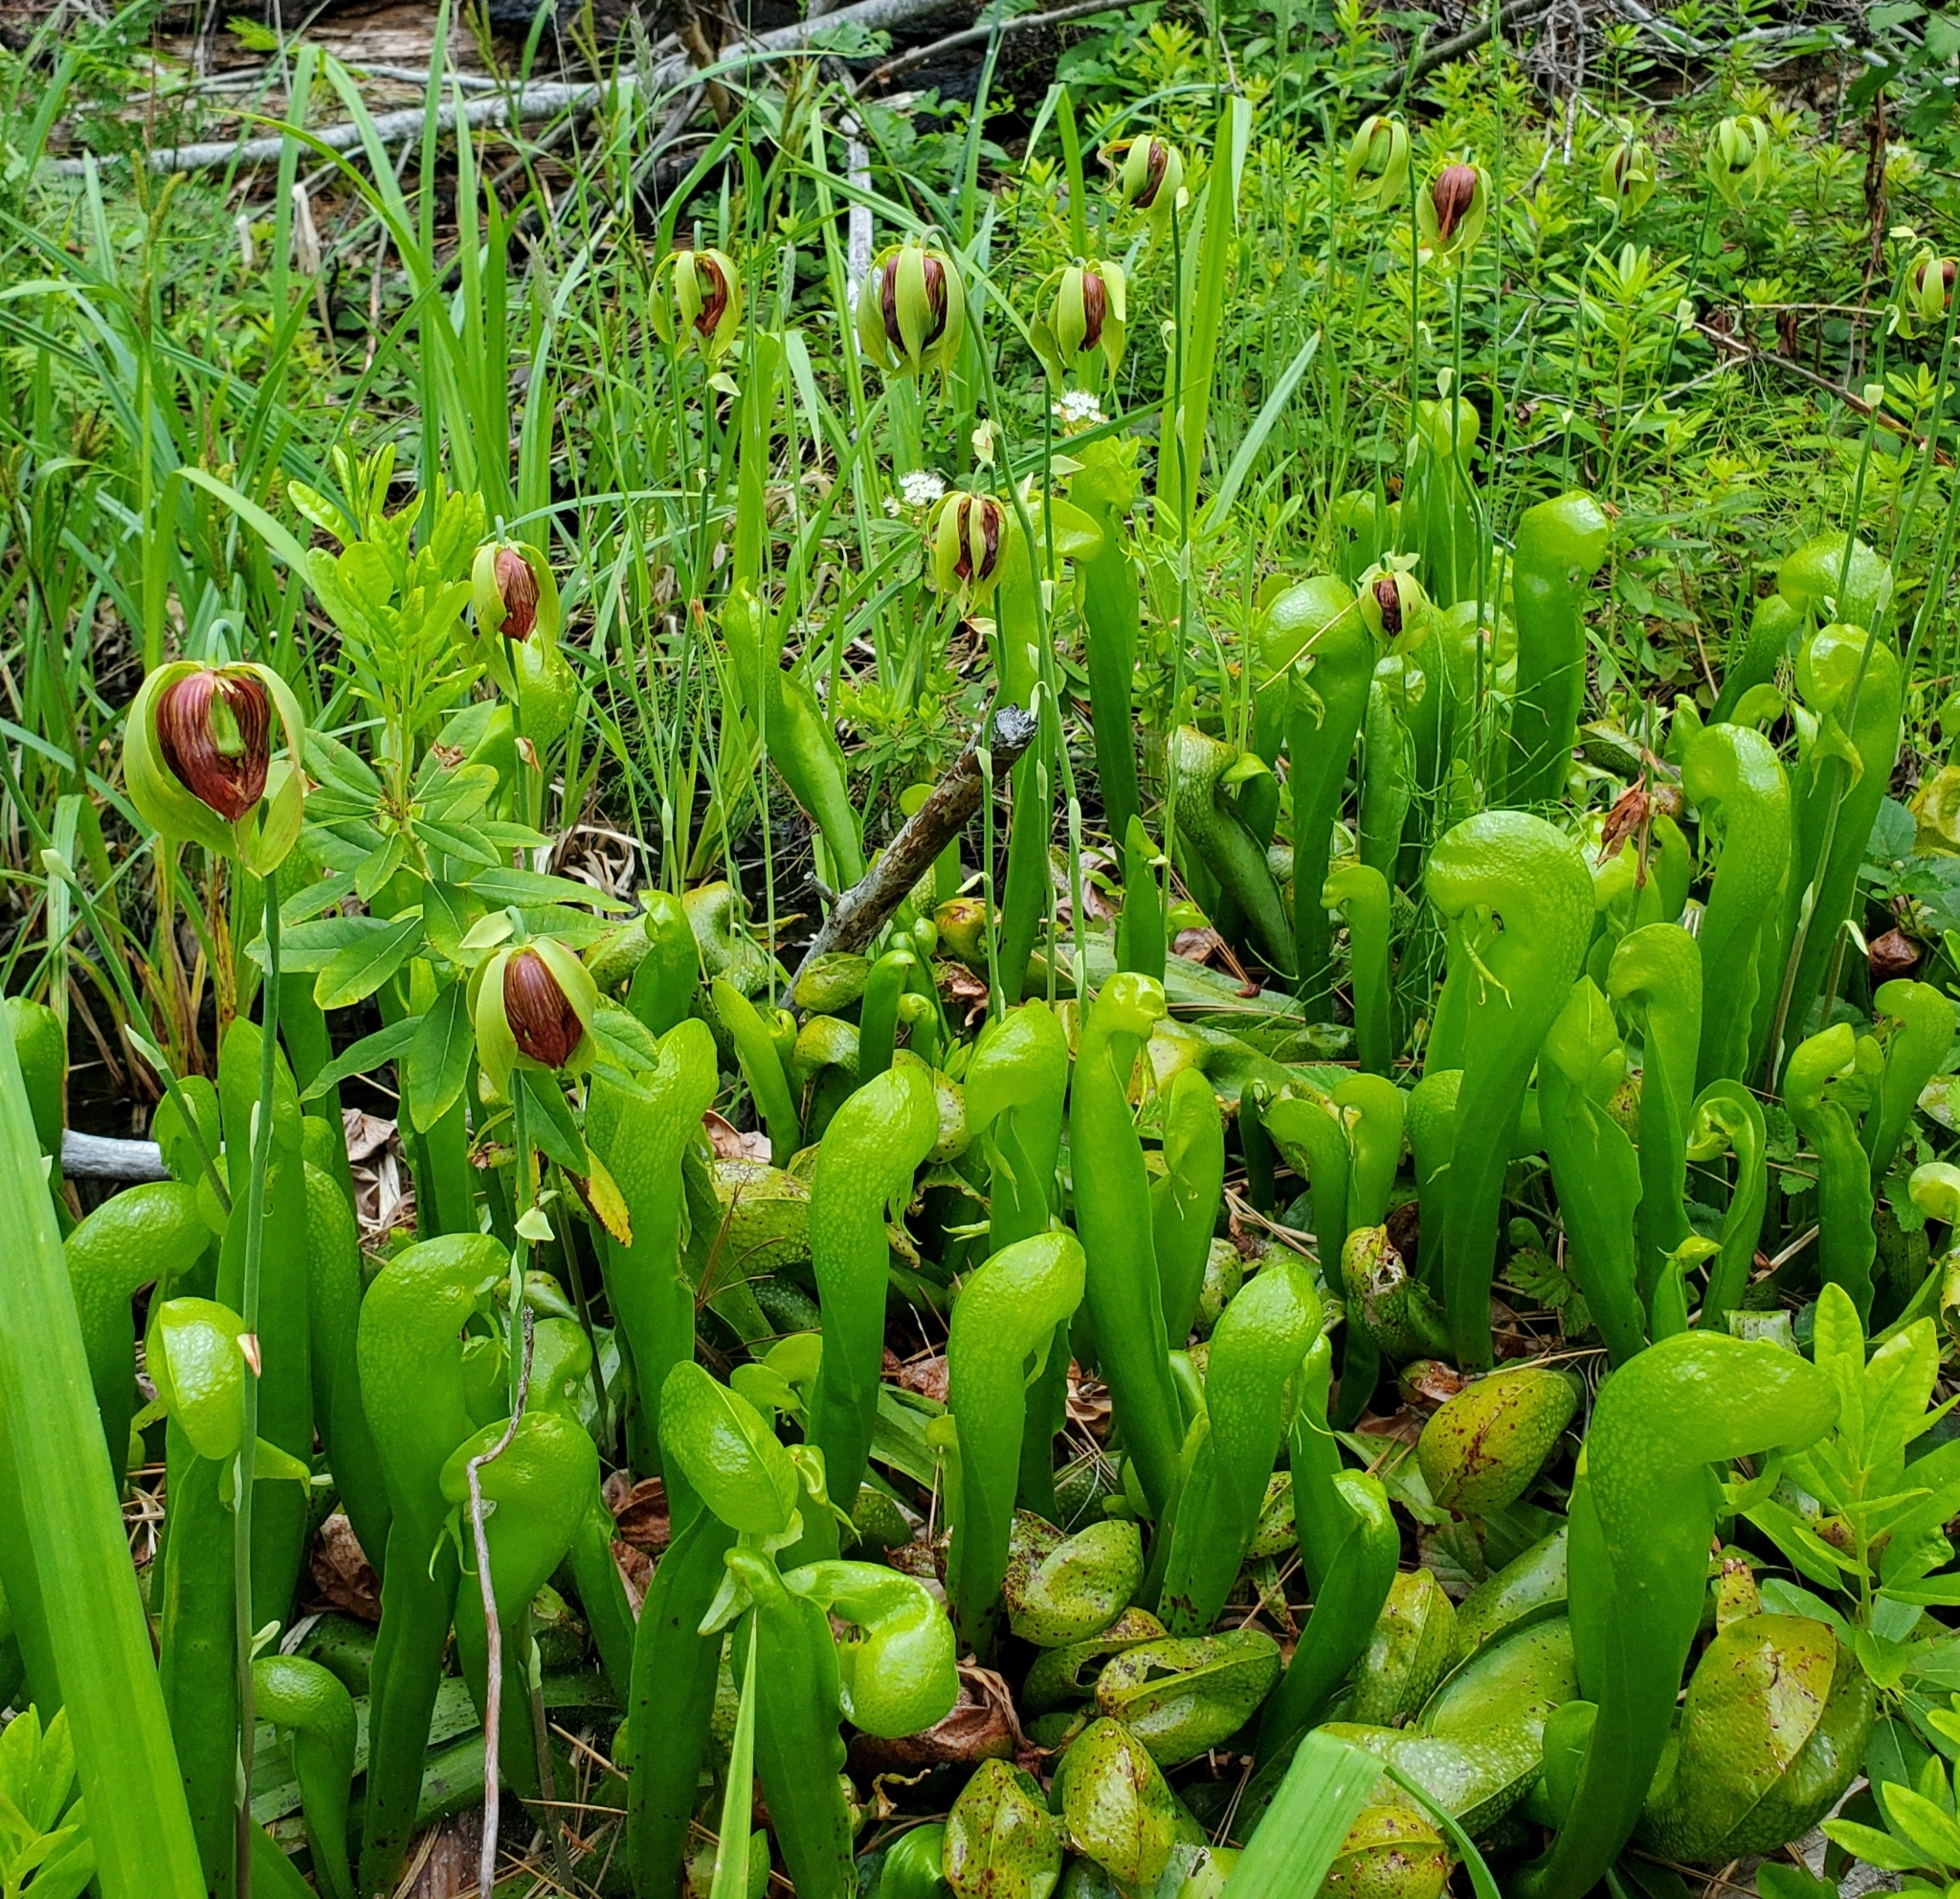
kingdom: Plantae
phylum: Tracheophyta
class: Magnoliopsida
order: Ericales
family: Sarraceniaceae
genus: Darlingtonia
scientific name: Darlingtonia californica
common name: California pitcher plant
